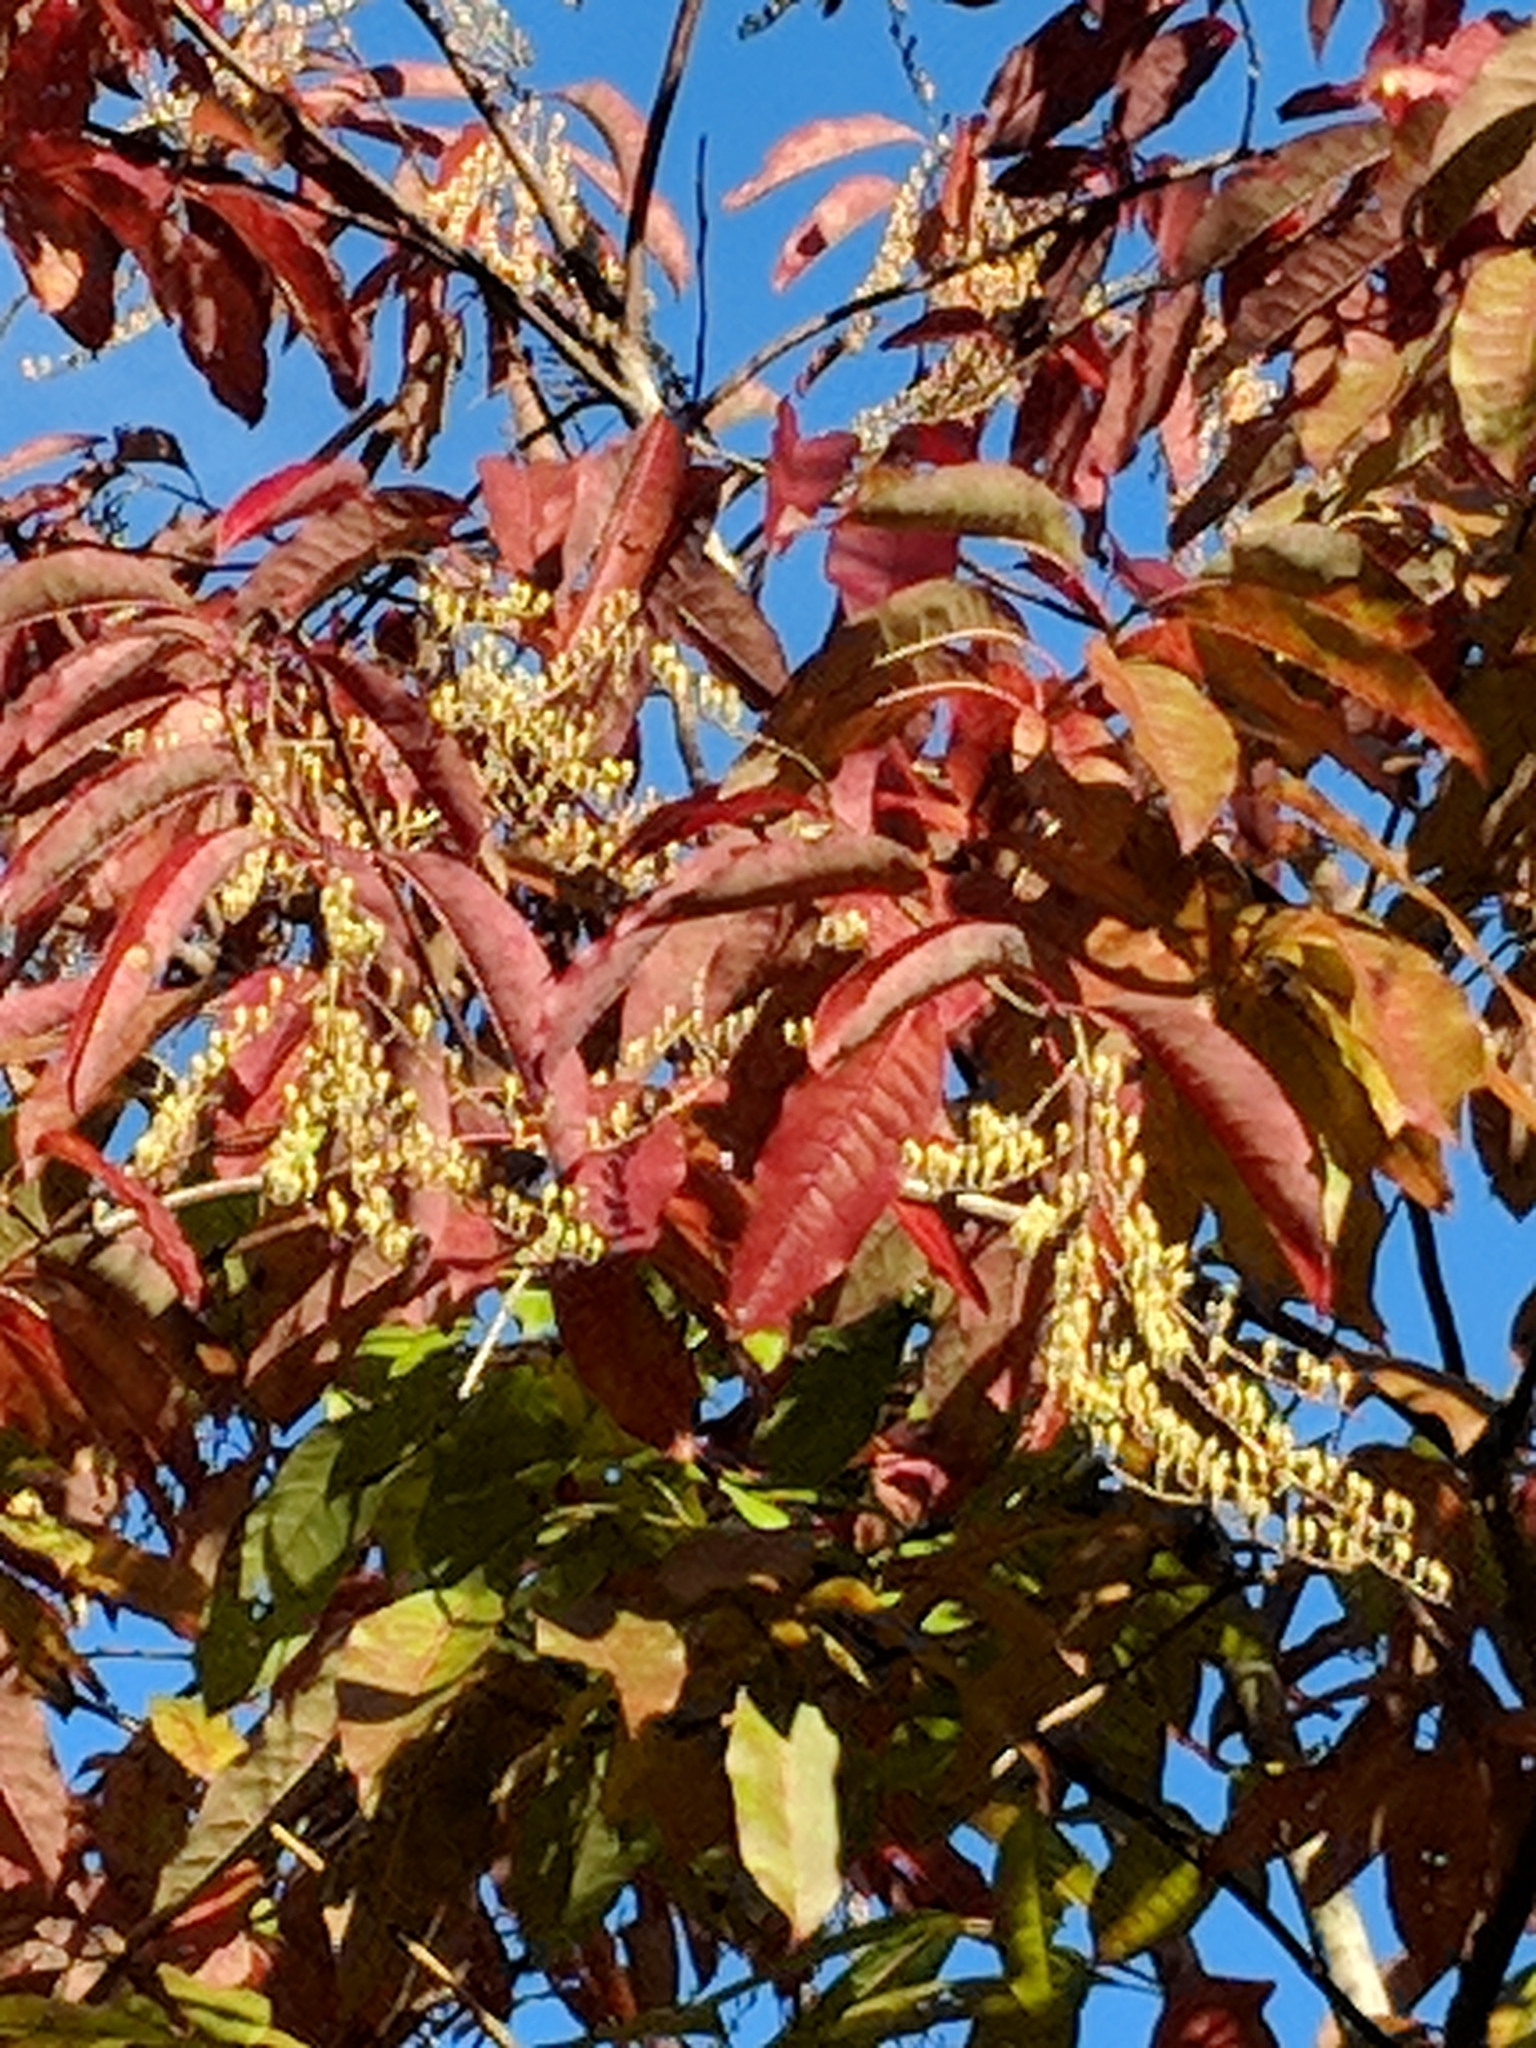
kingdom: Plantae
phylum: Tracheophyta
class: Magnoliopsida
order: Ericales
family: Ericaceae
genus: Oxydendrum
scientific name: Oxydendrum arboreum
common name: Sourwood
